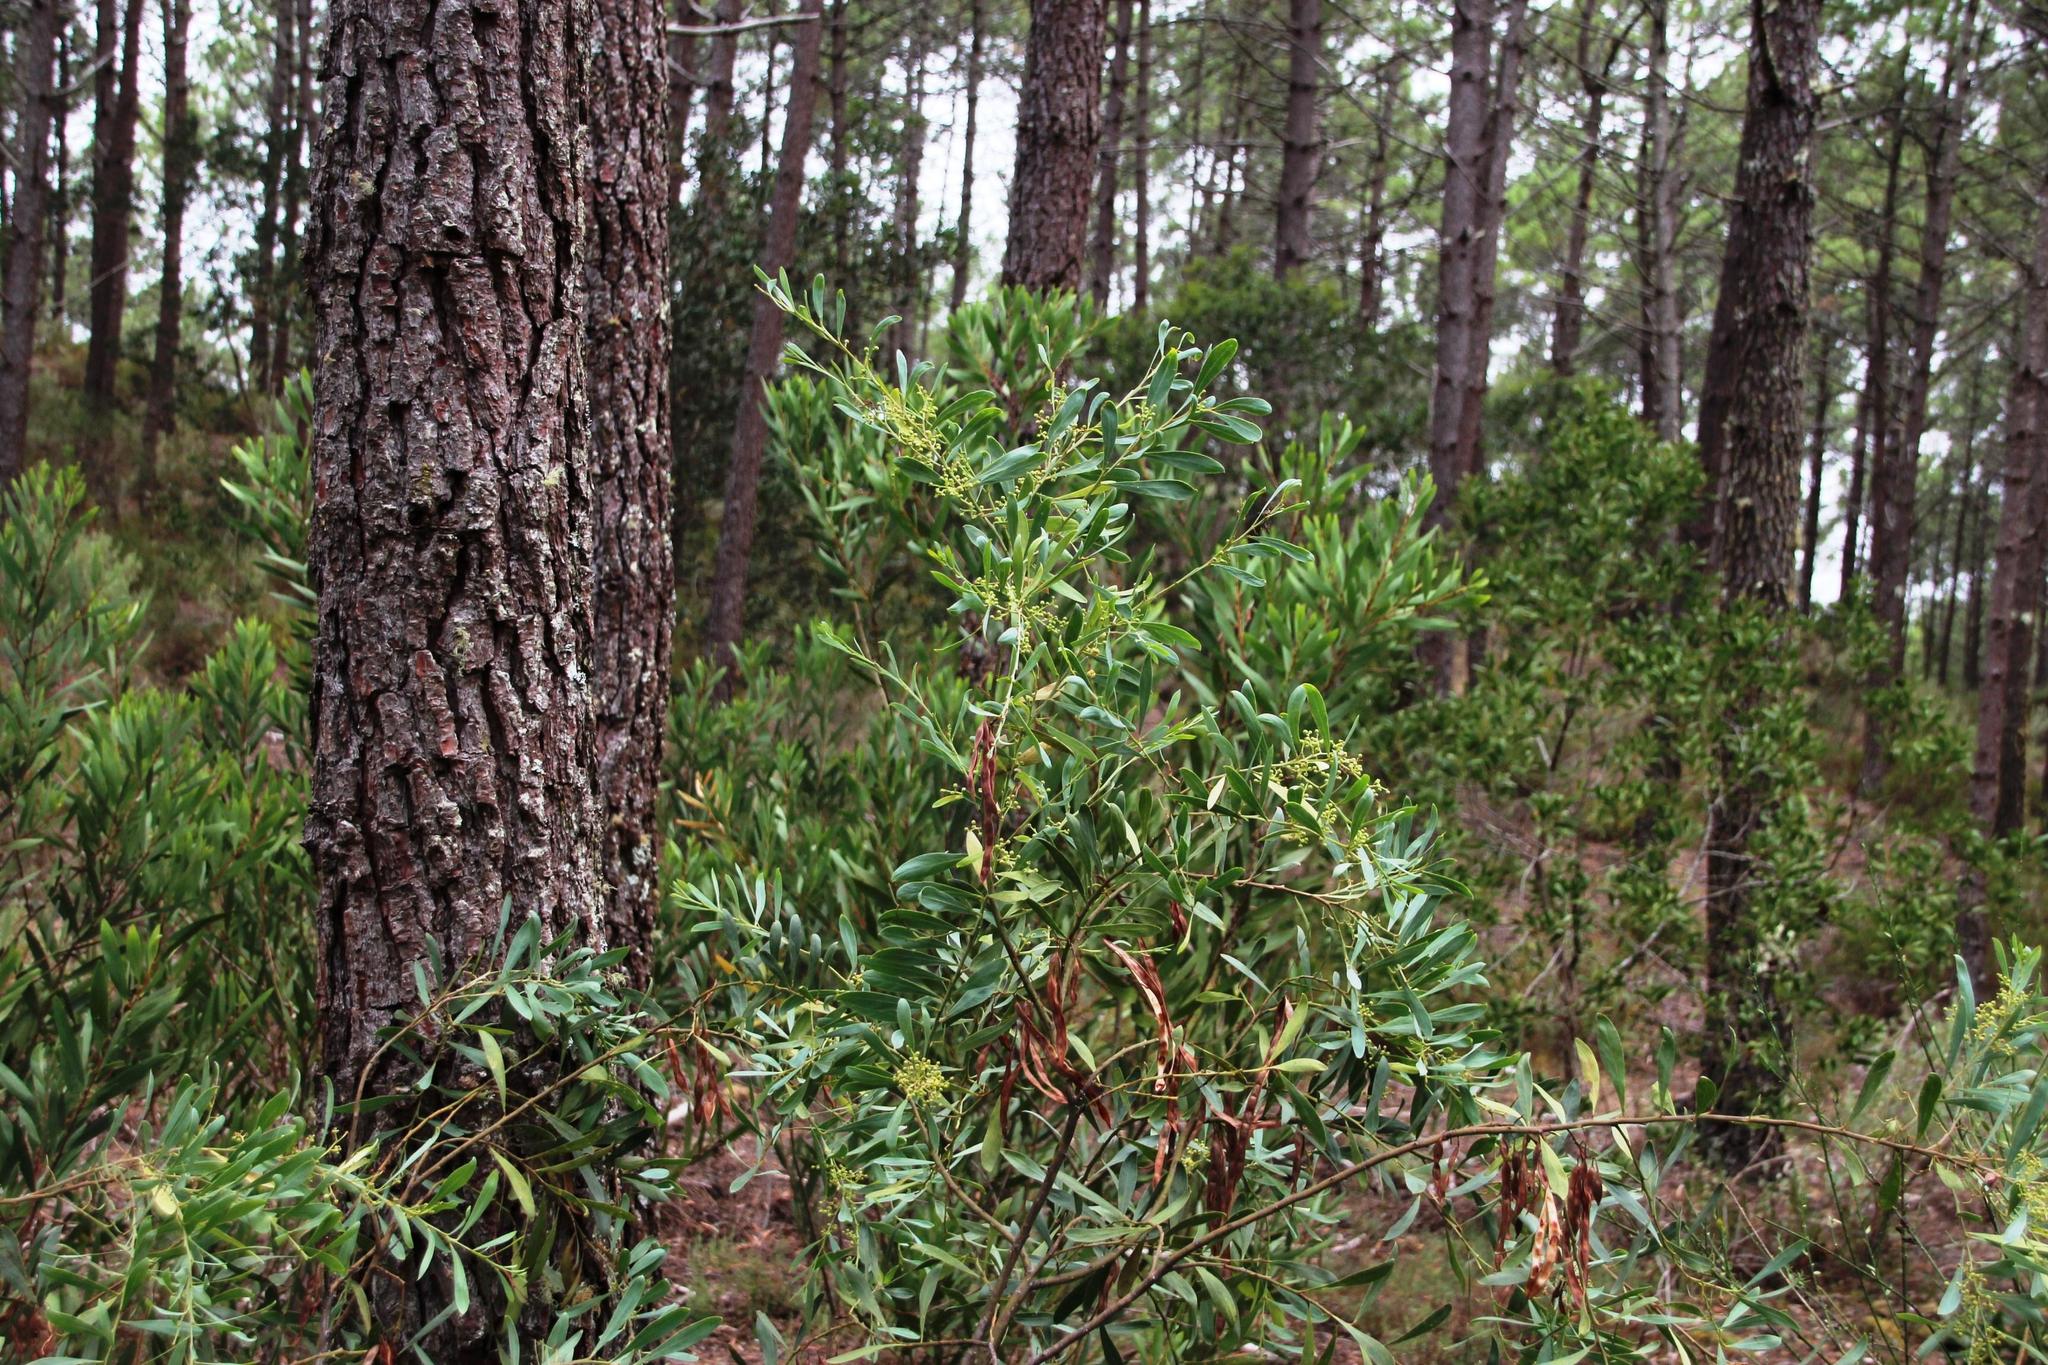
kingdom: Plantae
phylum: Tracheophyta
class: Magnoliopsida
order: Fabales
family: Fabaceae
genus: Acacia
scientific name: Acacia provincialis
